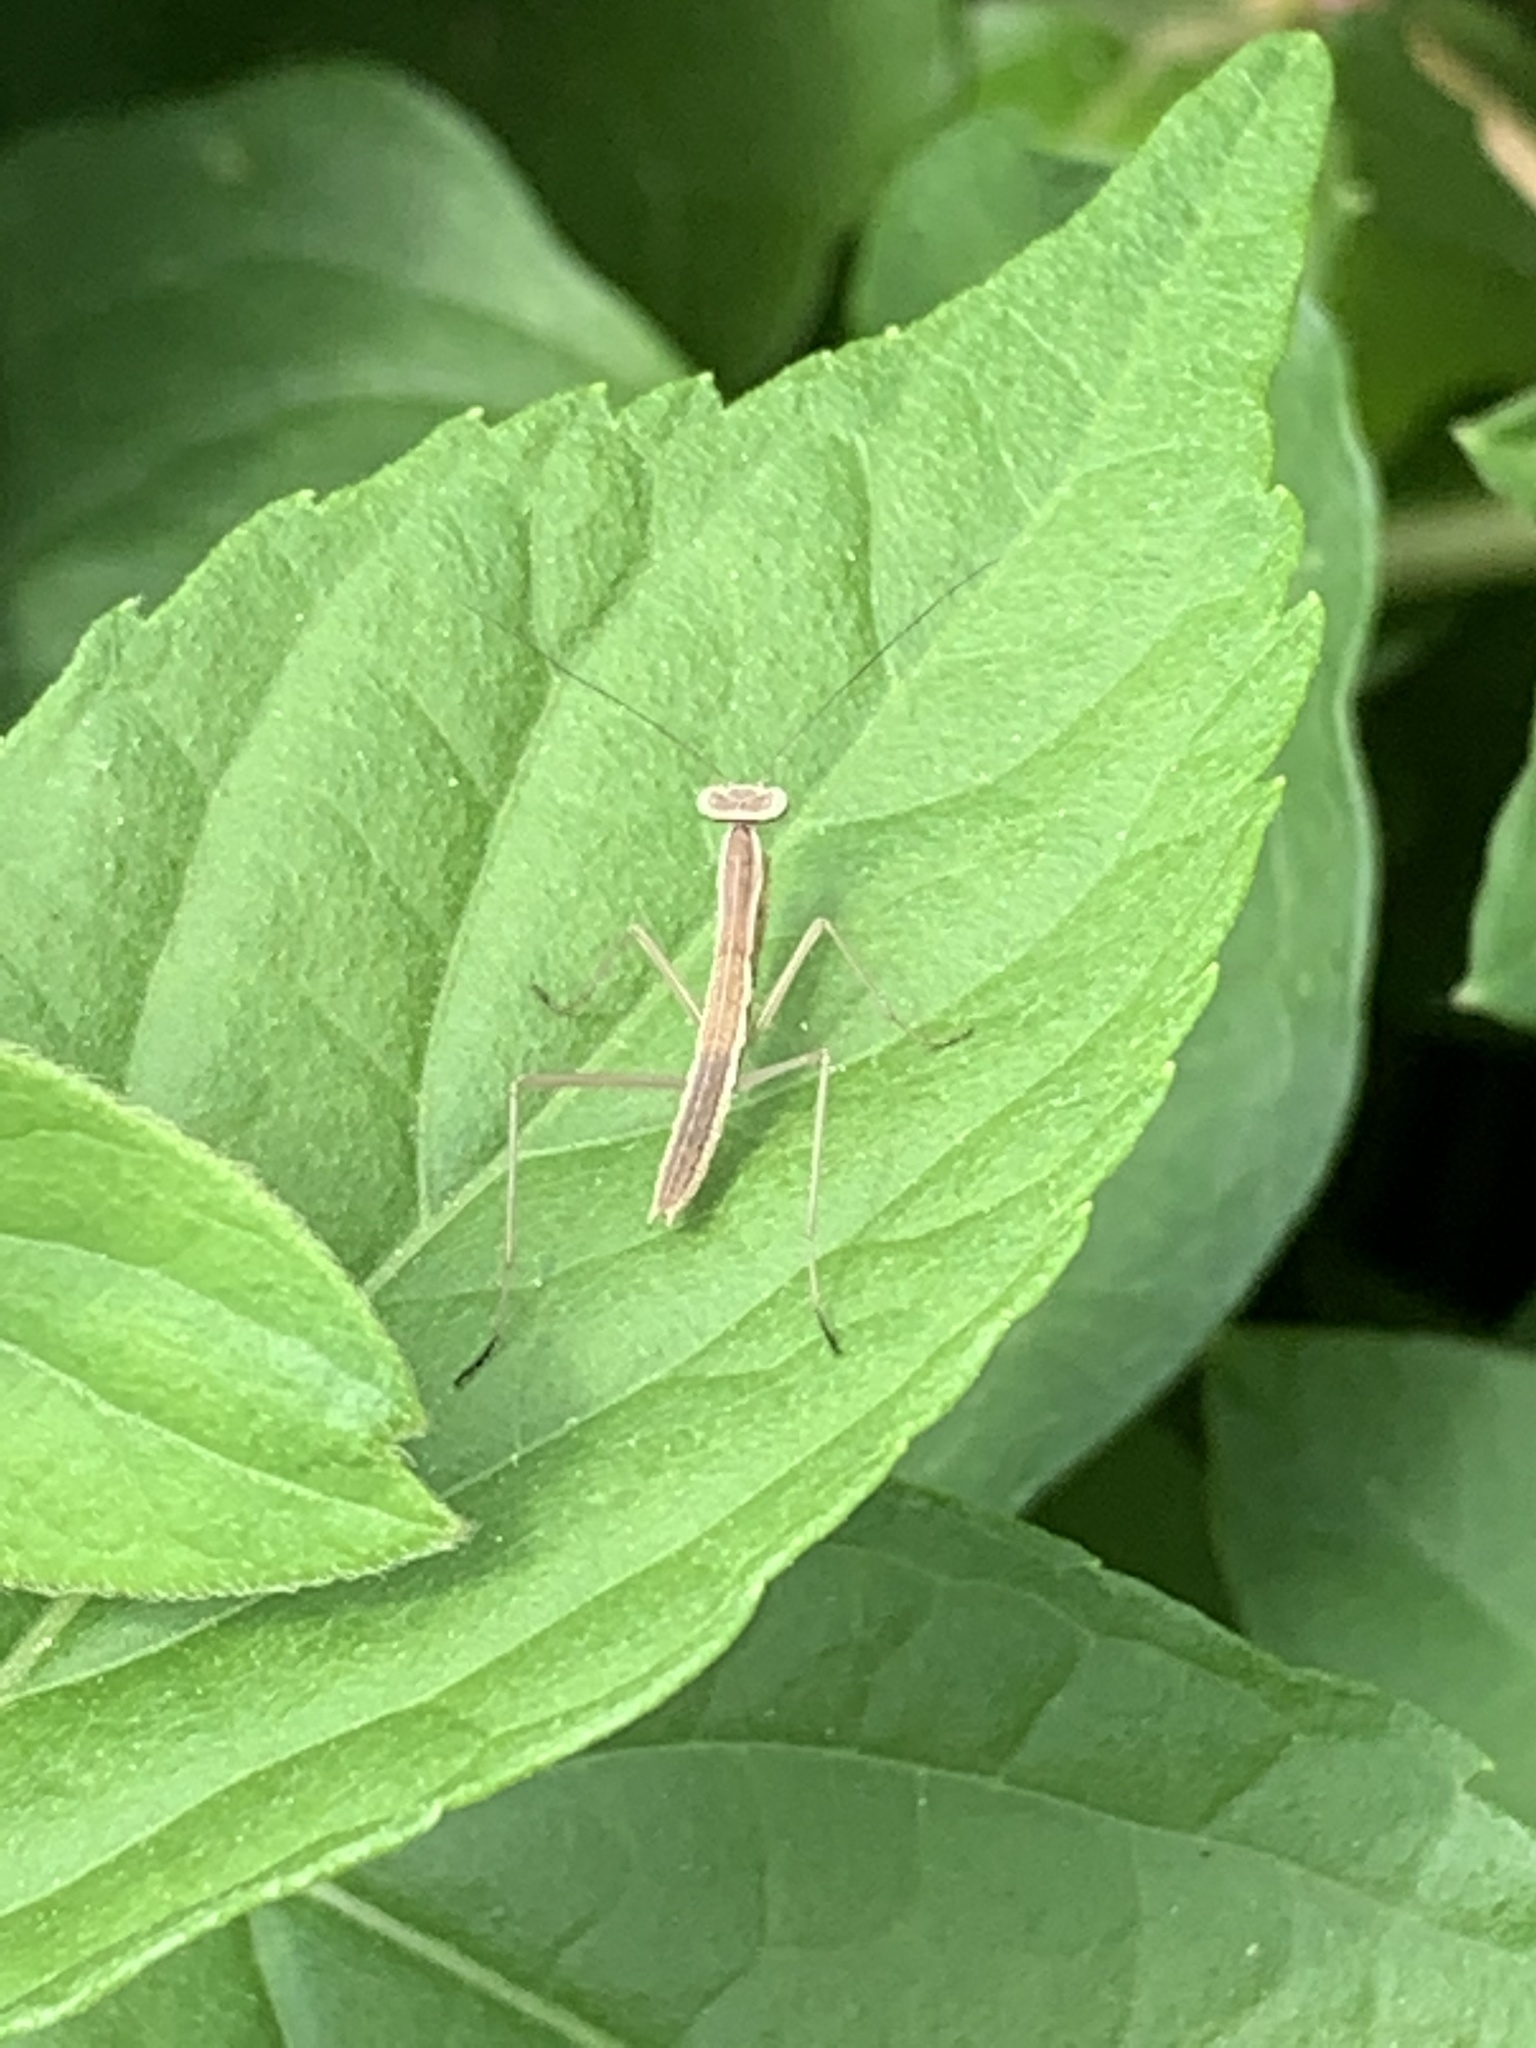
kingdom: Animalia
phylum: Arthropoda
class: Insecta
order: Mantodea
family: Mantidae
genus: Tenodera
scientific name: Tenodera sinensis
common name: Chinese mantis
